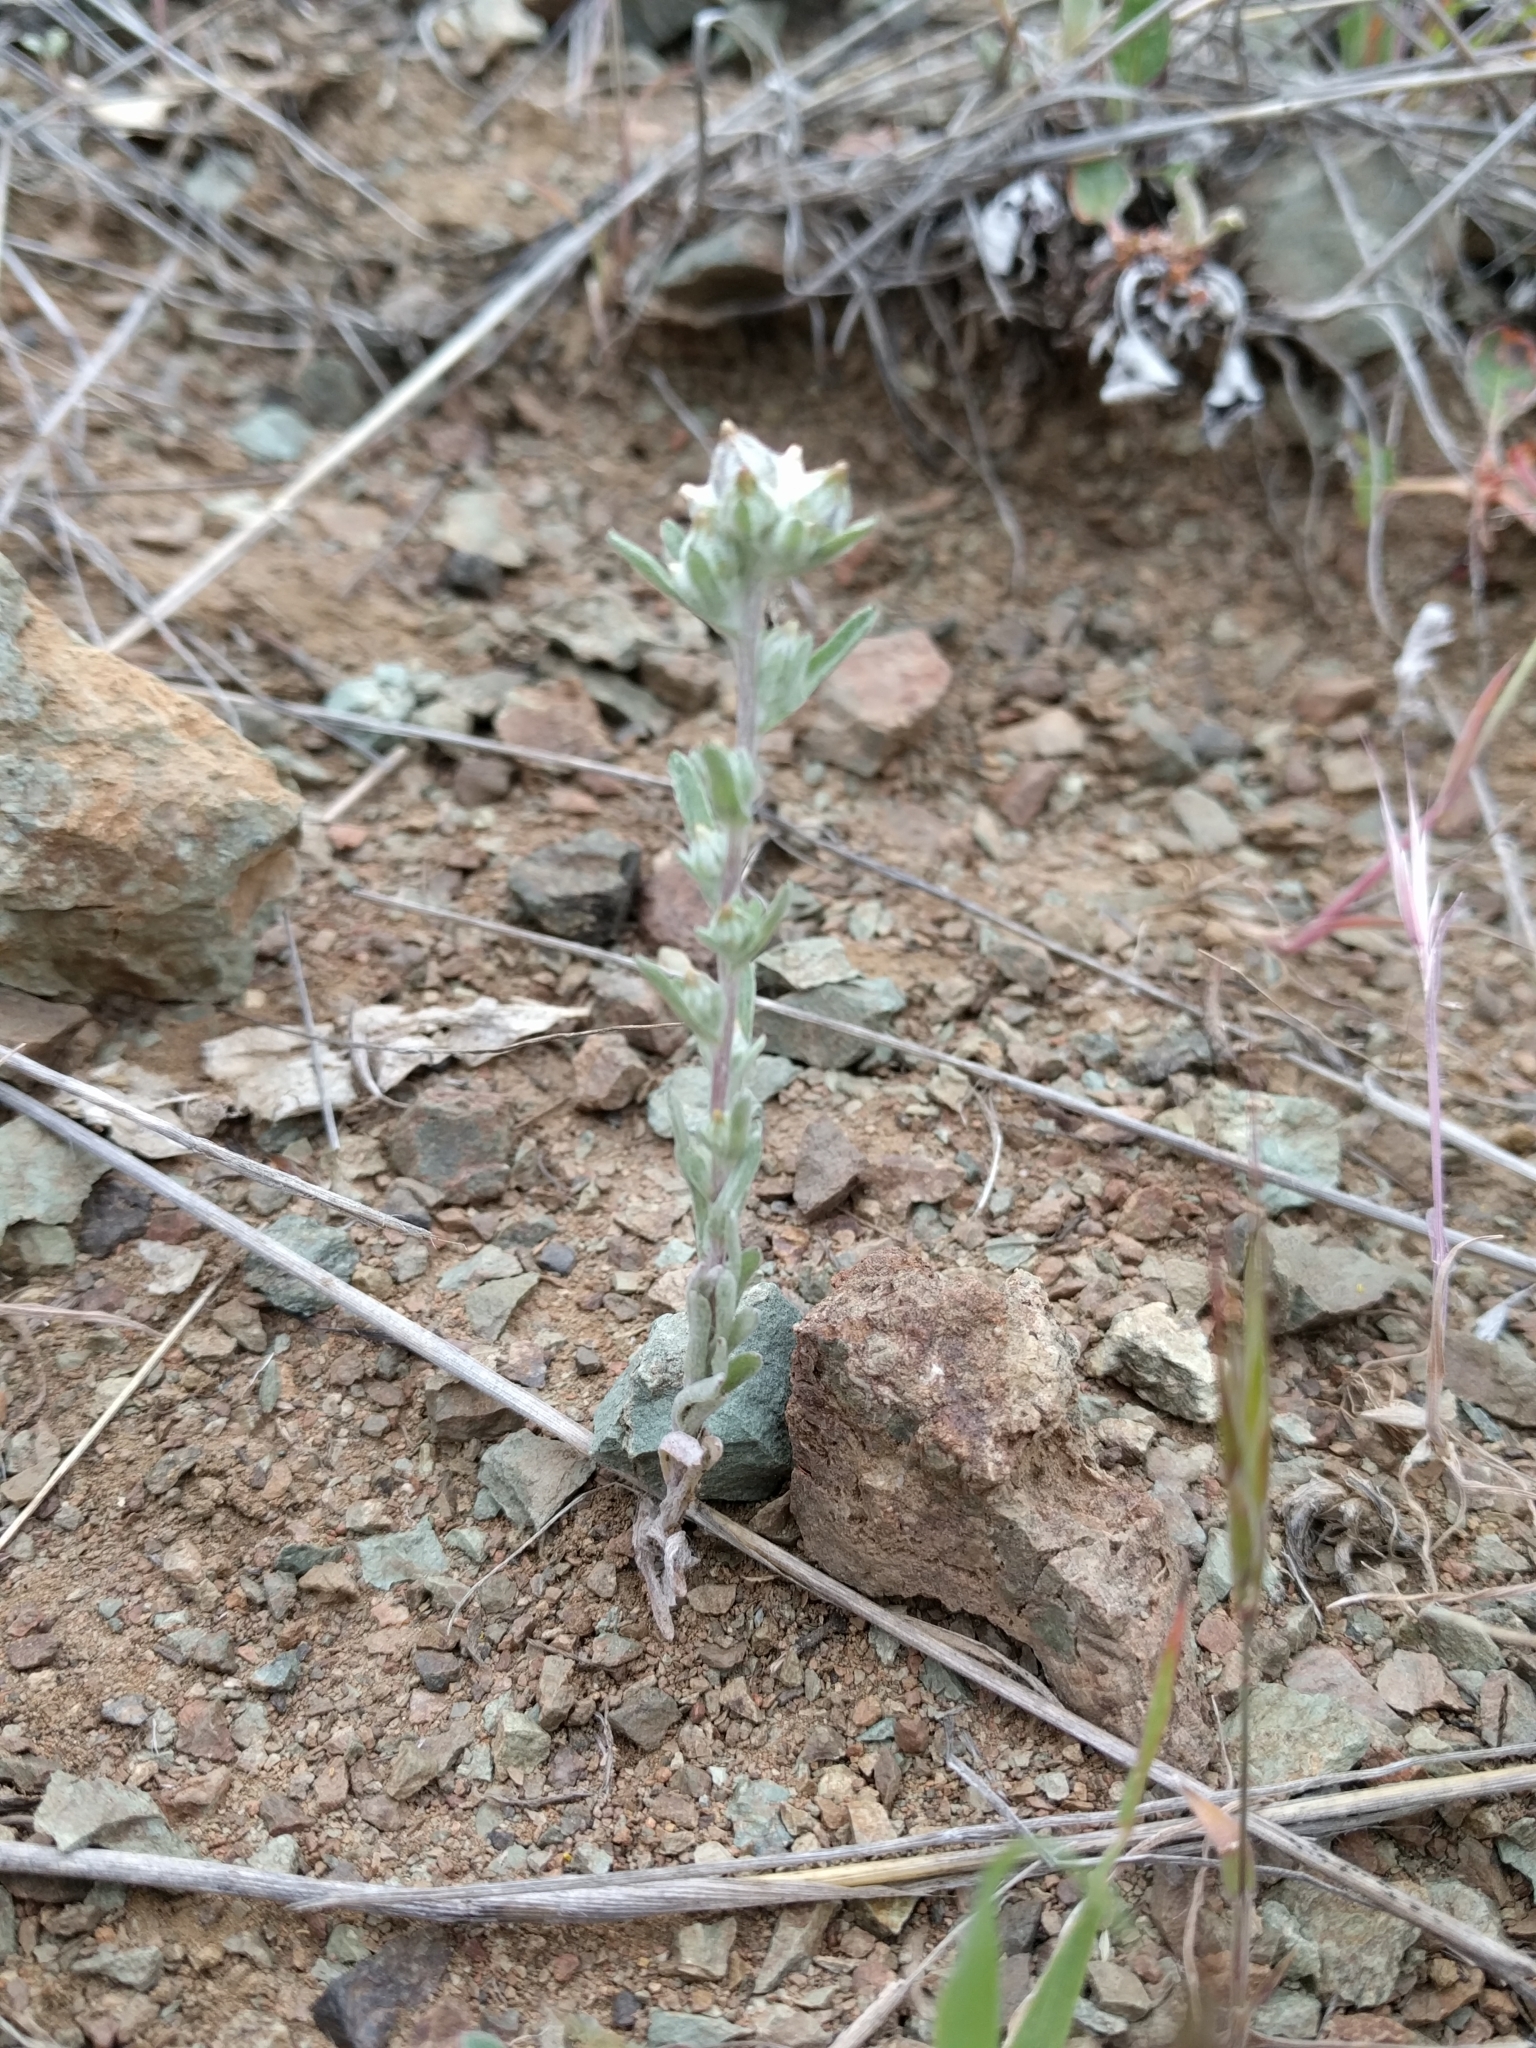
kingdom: Plantae
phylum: Tracheophyta
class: Magnoliopsida
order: Asterales
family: Asteraceae
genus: Logfia
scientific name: Logfia californica
